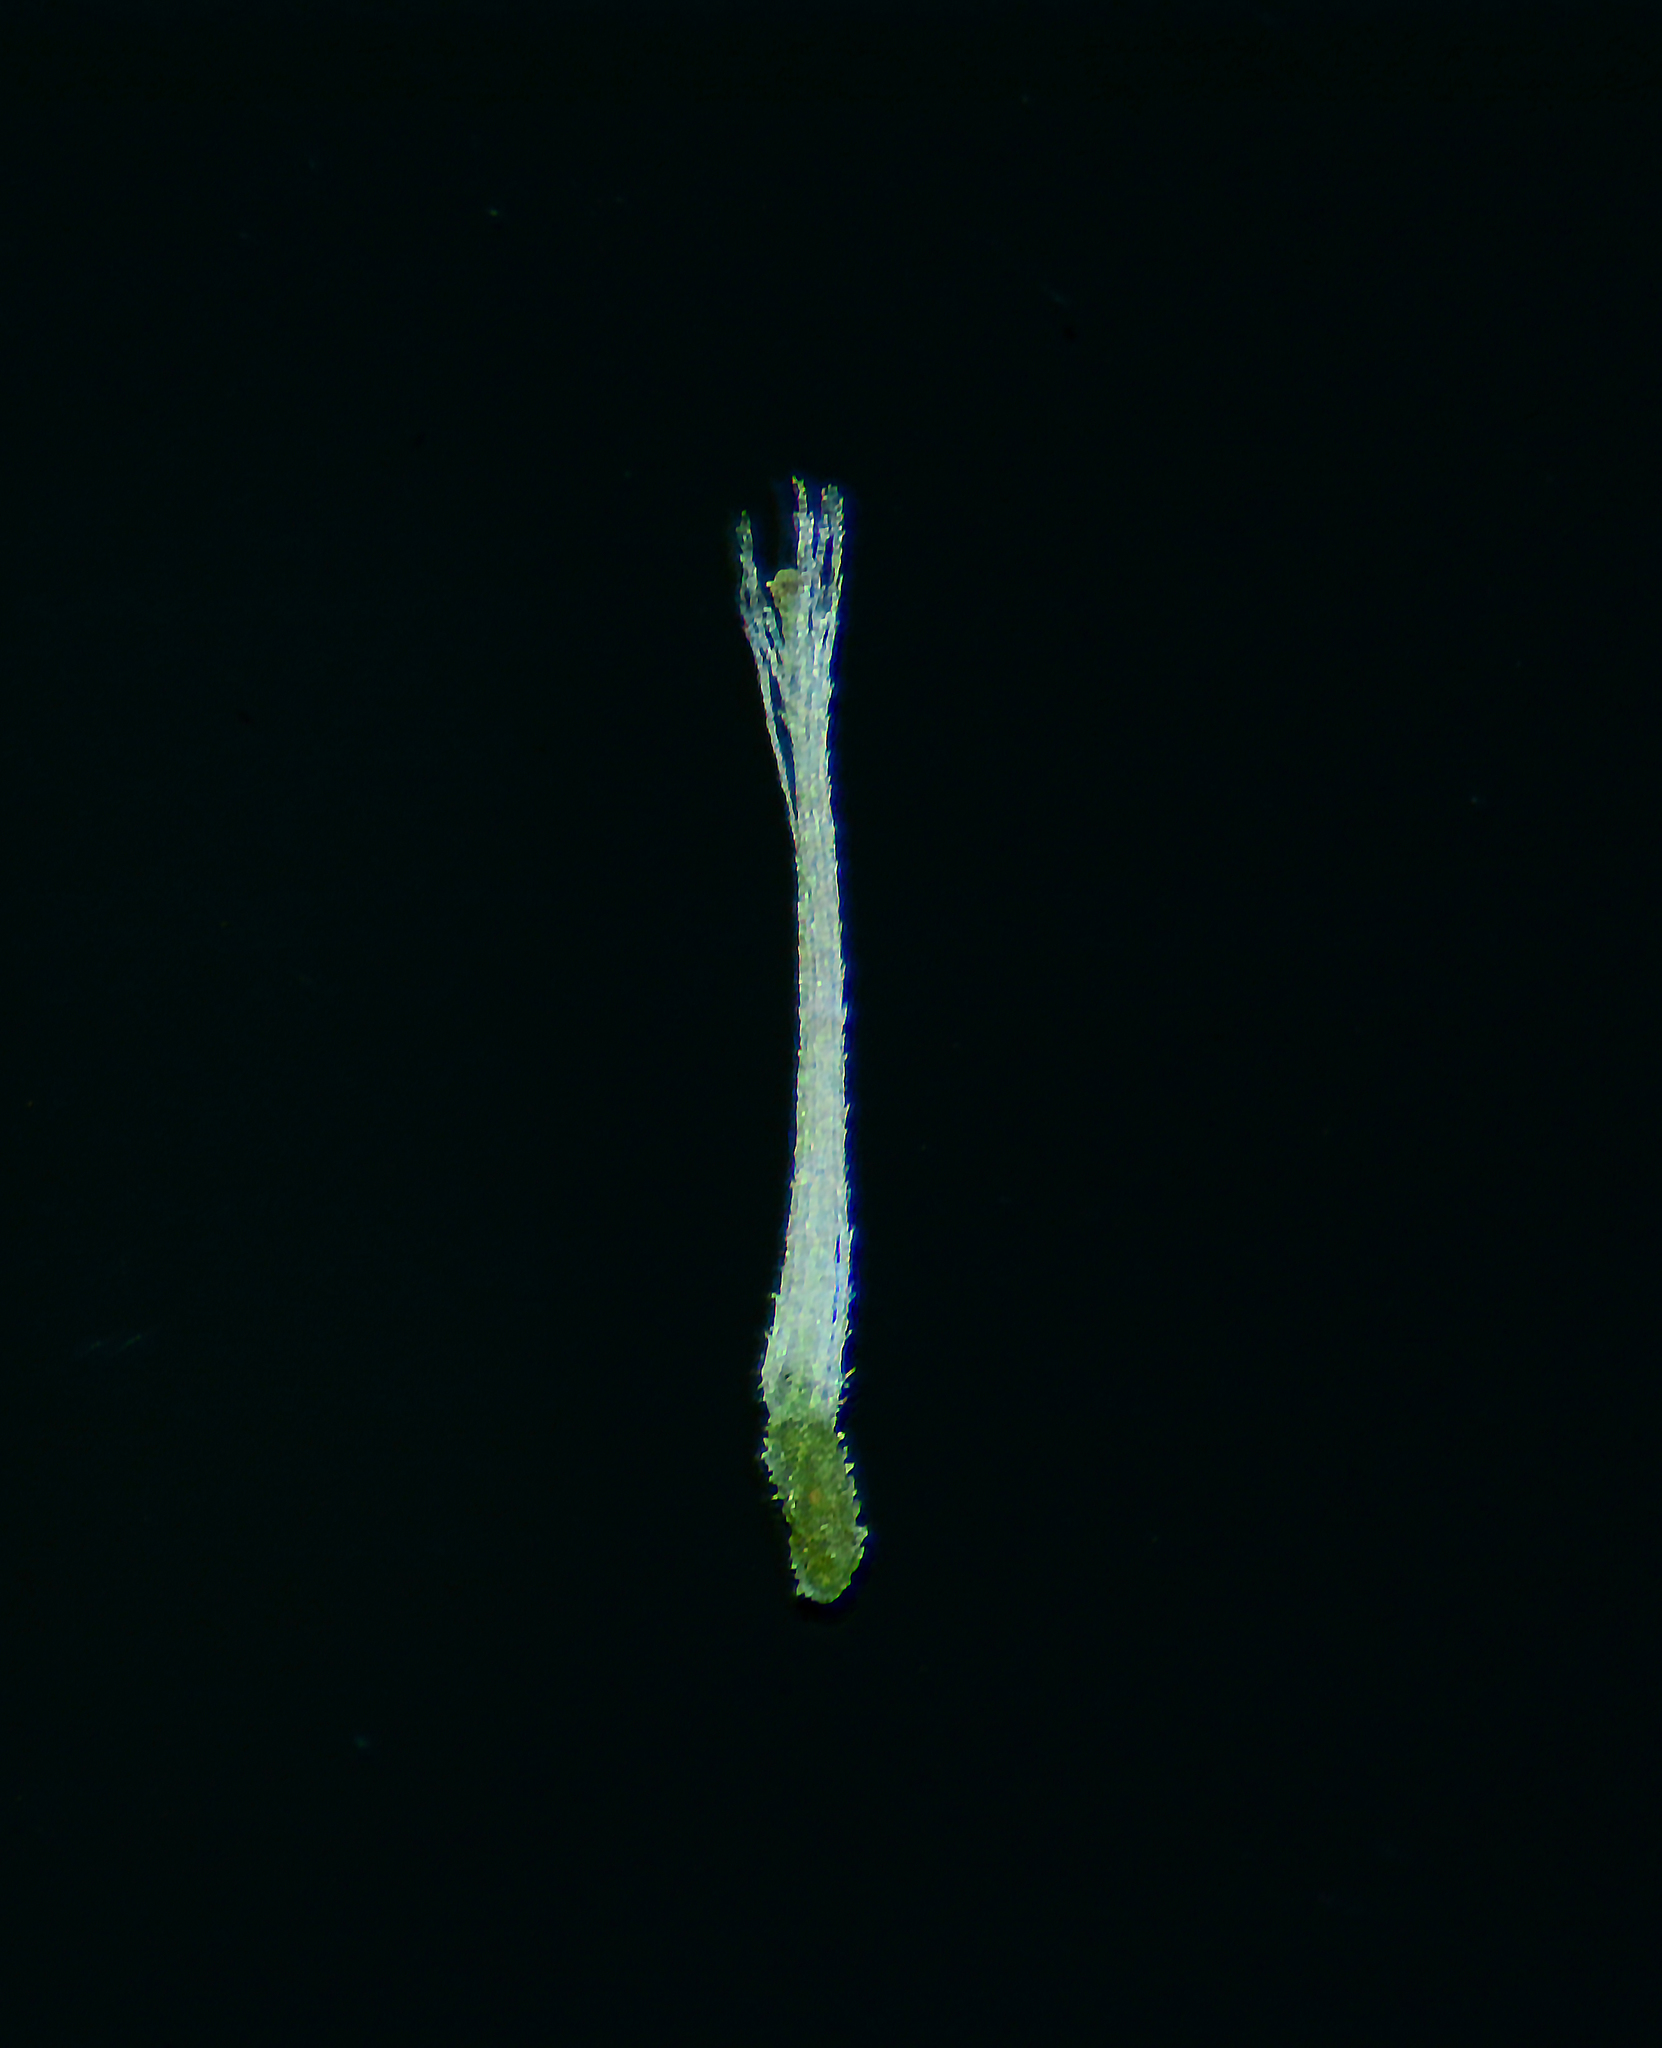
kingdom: Plantae
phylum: Tracheophyta
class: Magnoliopsida
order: Asterales
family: Asteraceae
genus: Helichrysum
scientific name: Helichrysum luteoalbum
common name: Daisy
